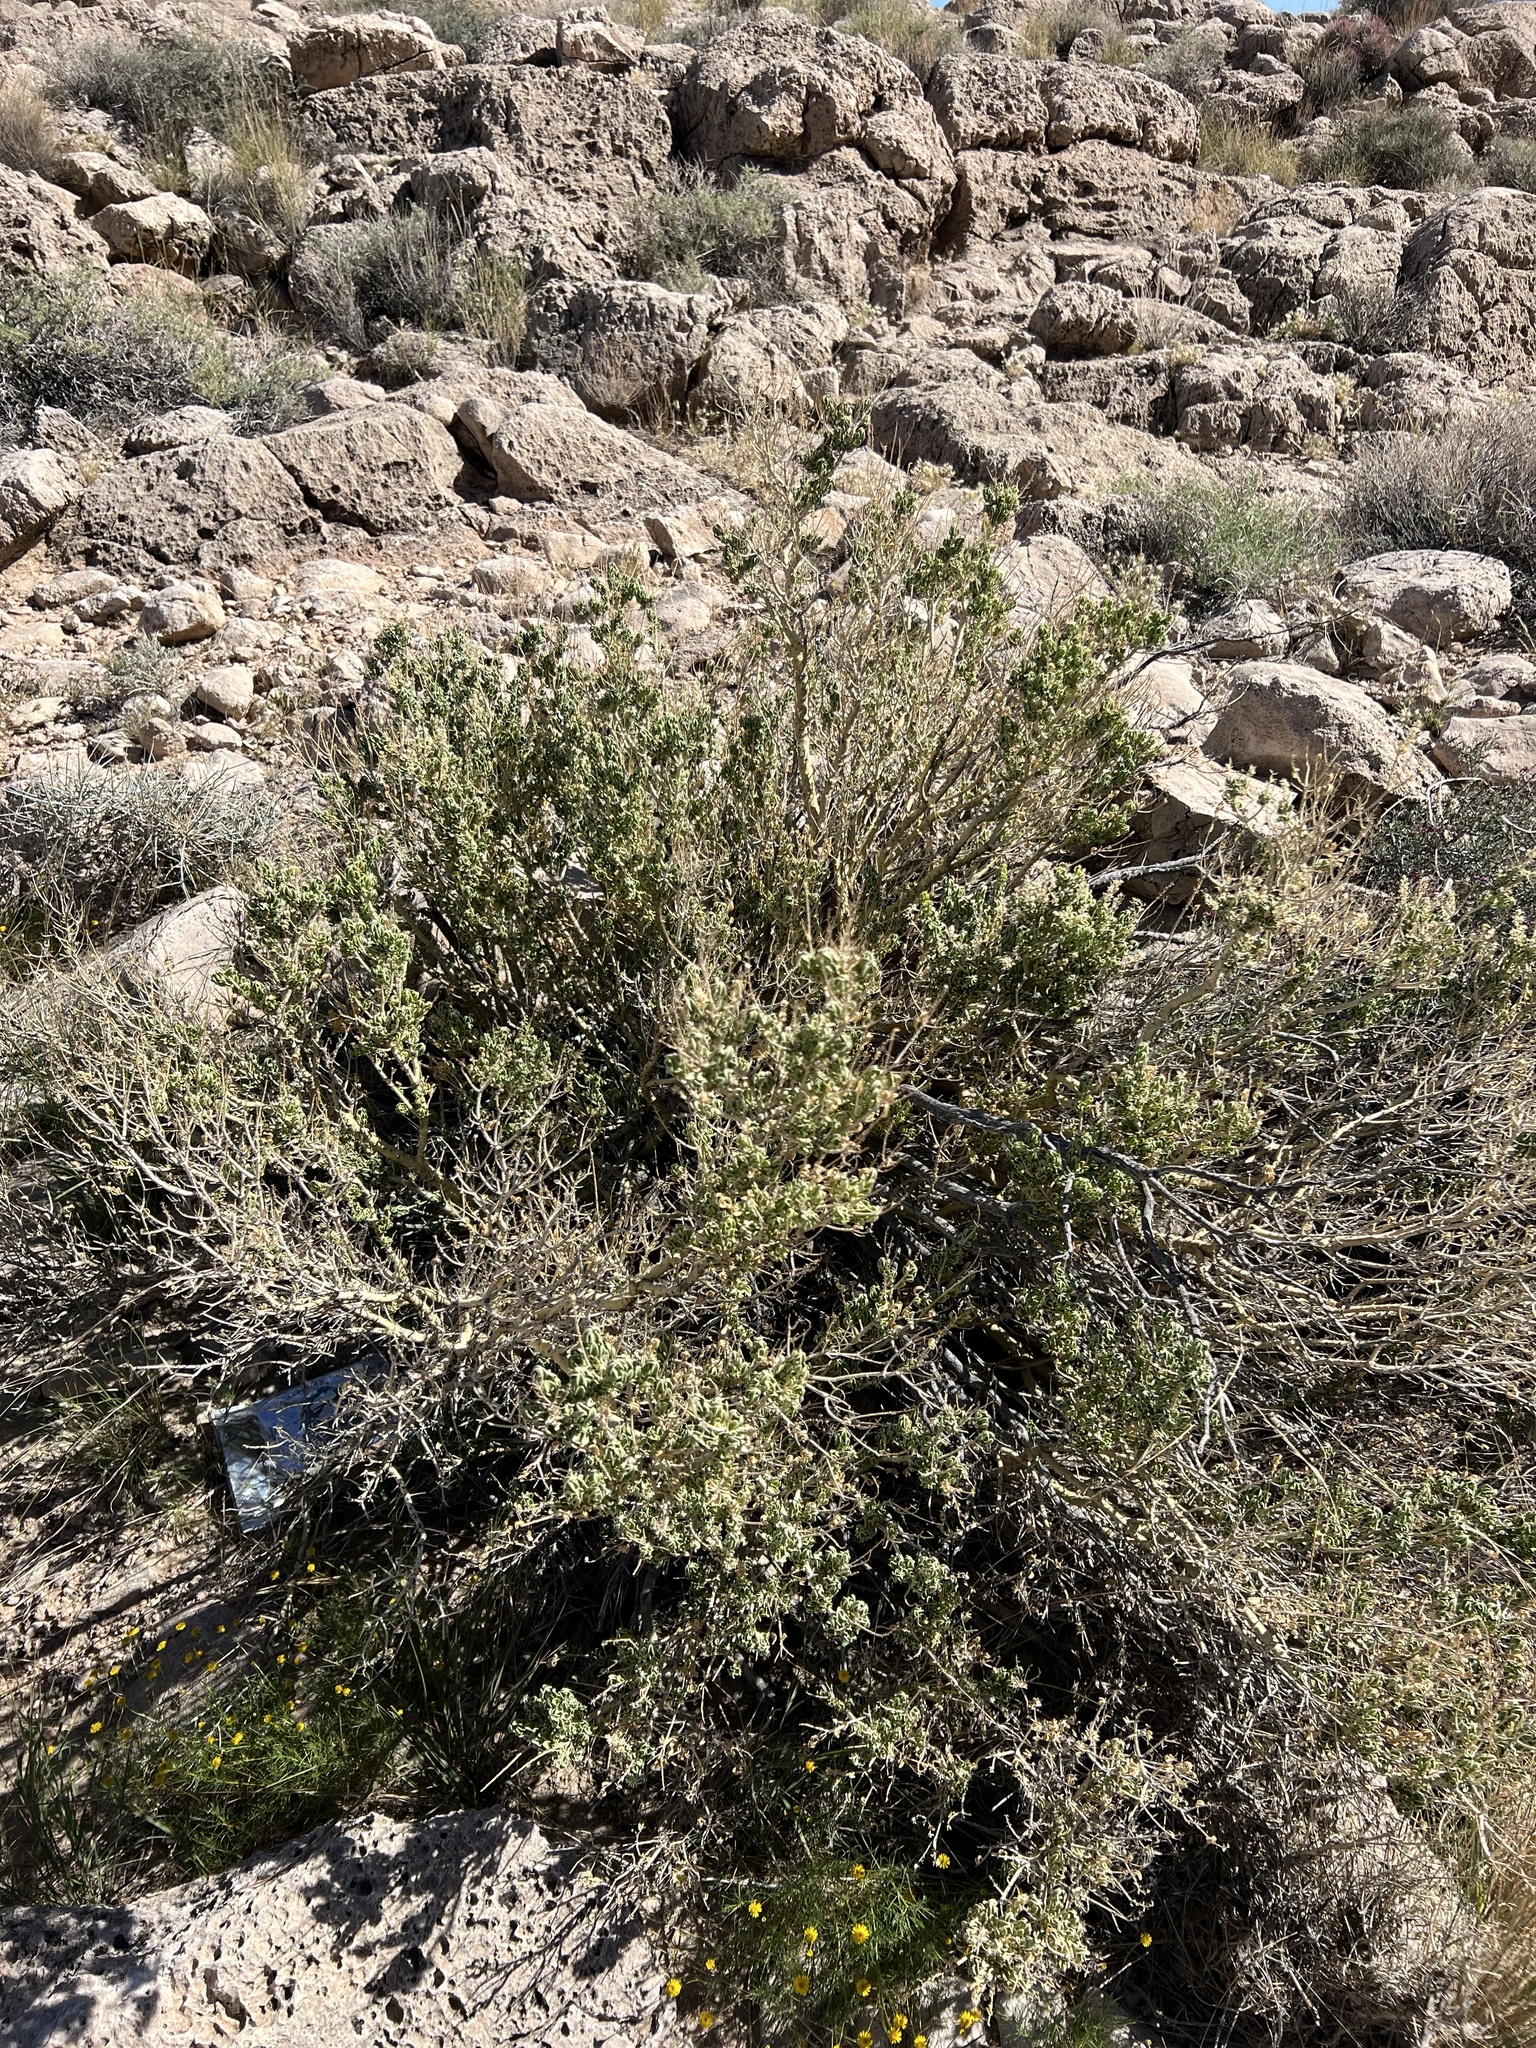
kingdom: Plantae
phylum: Tracheophyta
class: Magnoliopsida
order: Celastrales
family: Celastraceae
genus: Mortonia
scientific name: Mortonia utahensis
